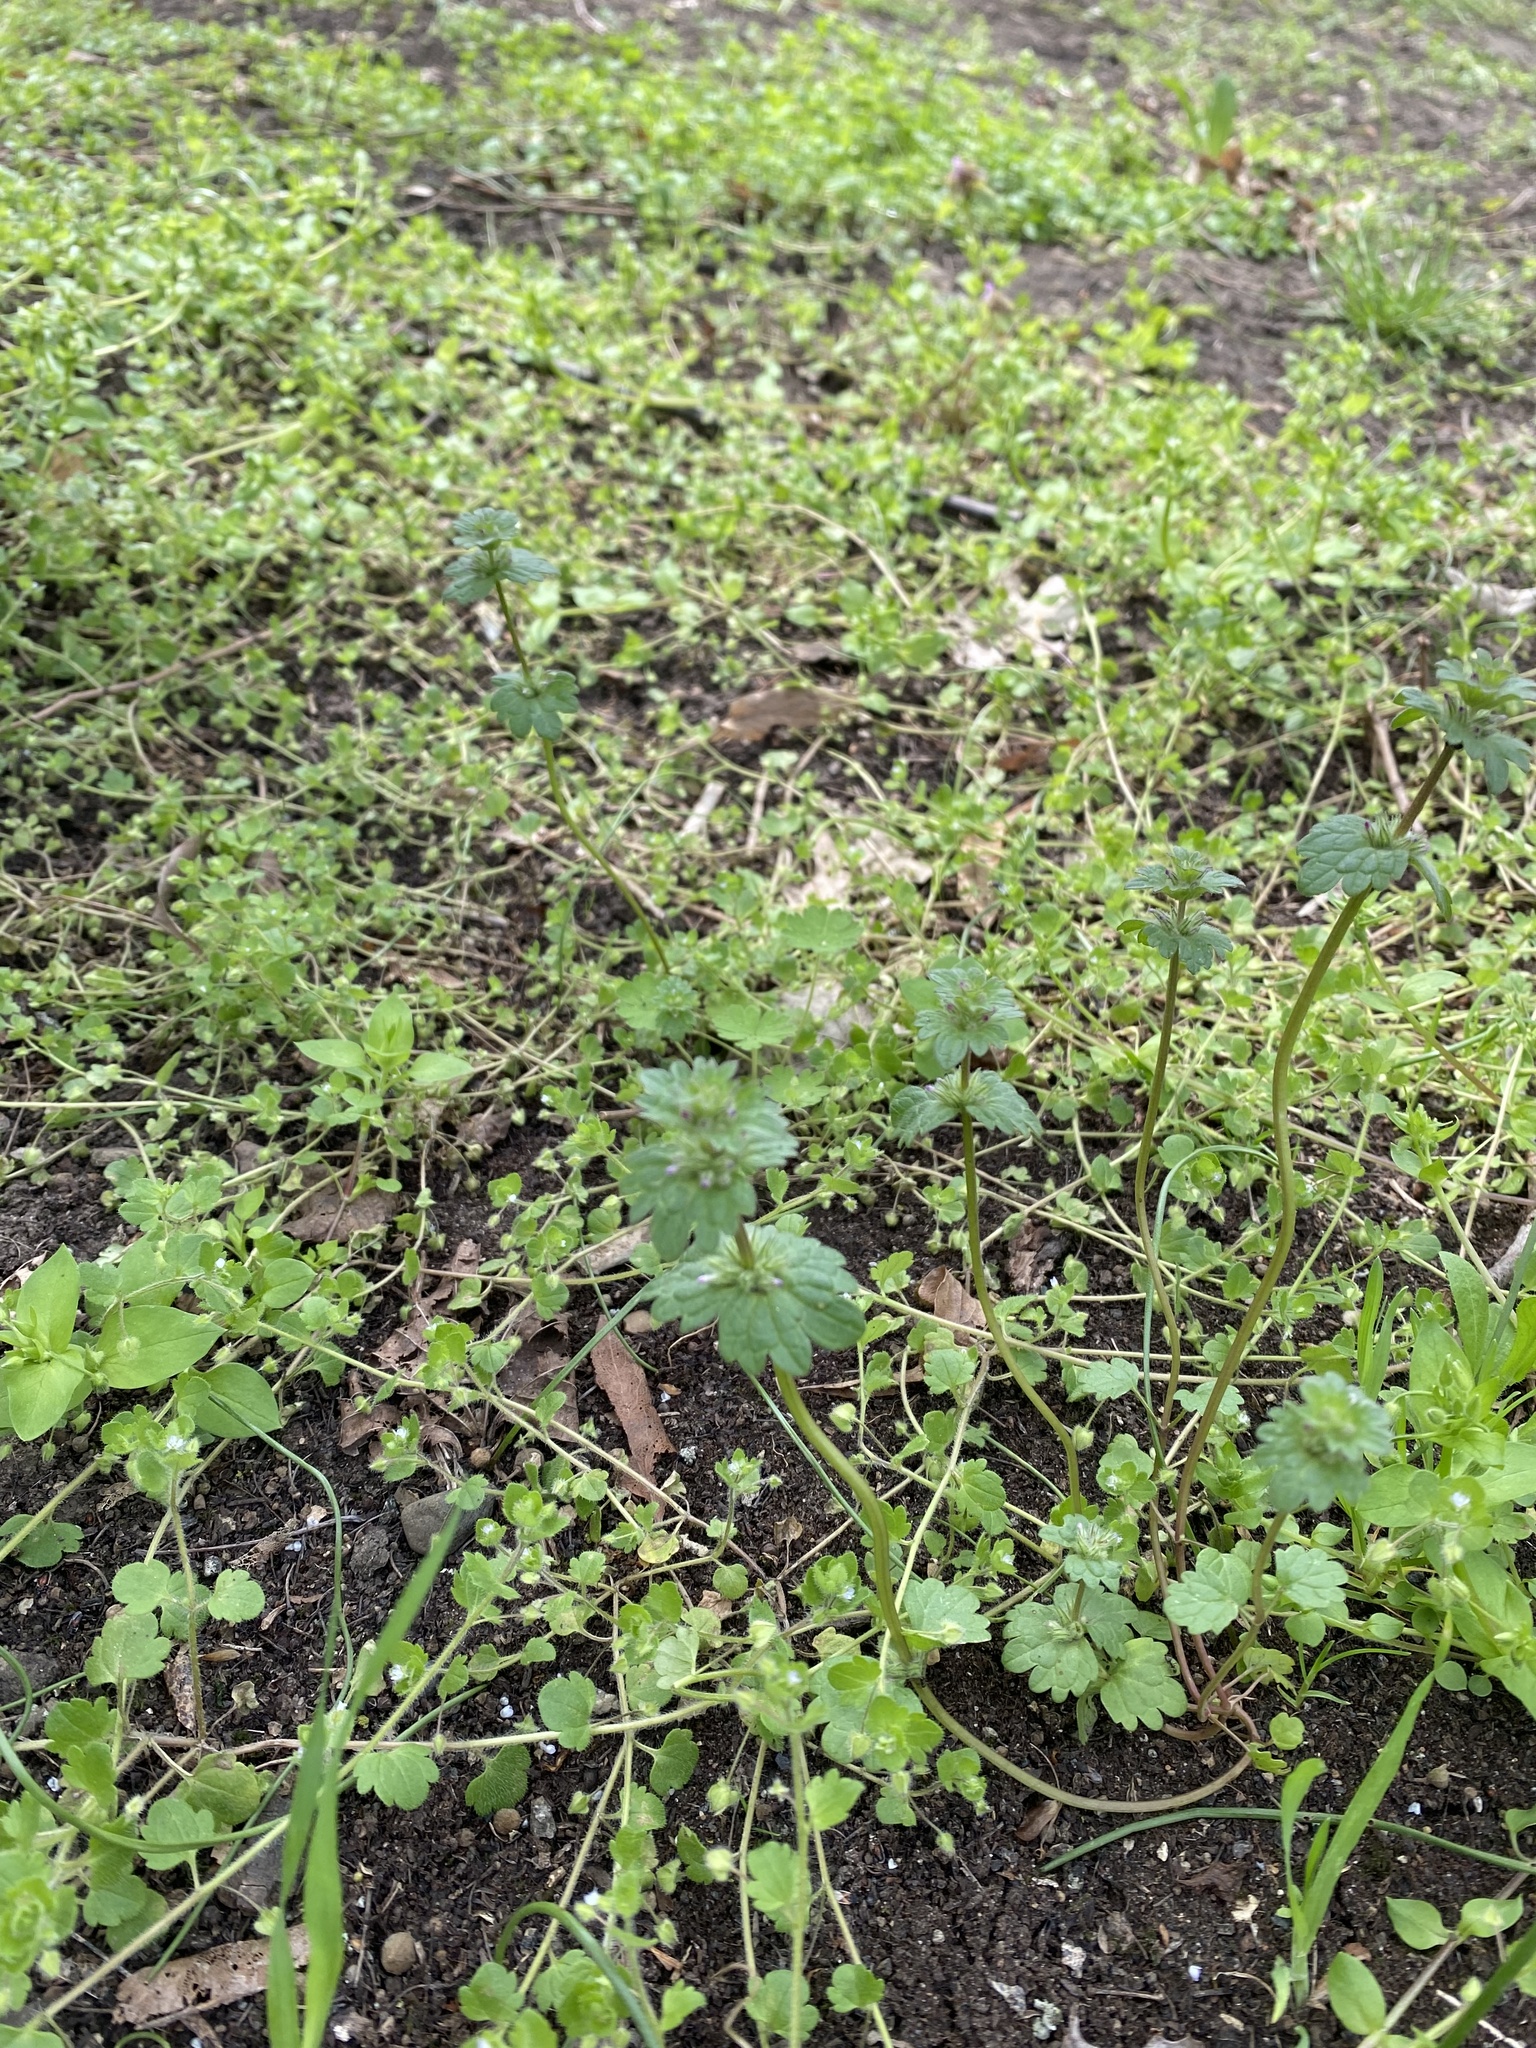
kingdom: Plantae
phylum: Tracheophyta
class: Magnoliopsida
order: Lamiales
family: Lamiaceae
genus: Lamium
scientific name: Lamium amplexicaule
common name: Henbit dead-nettle
